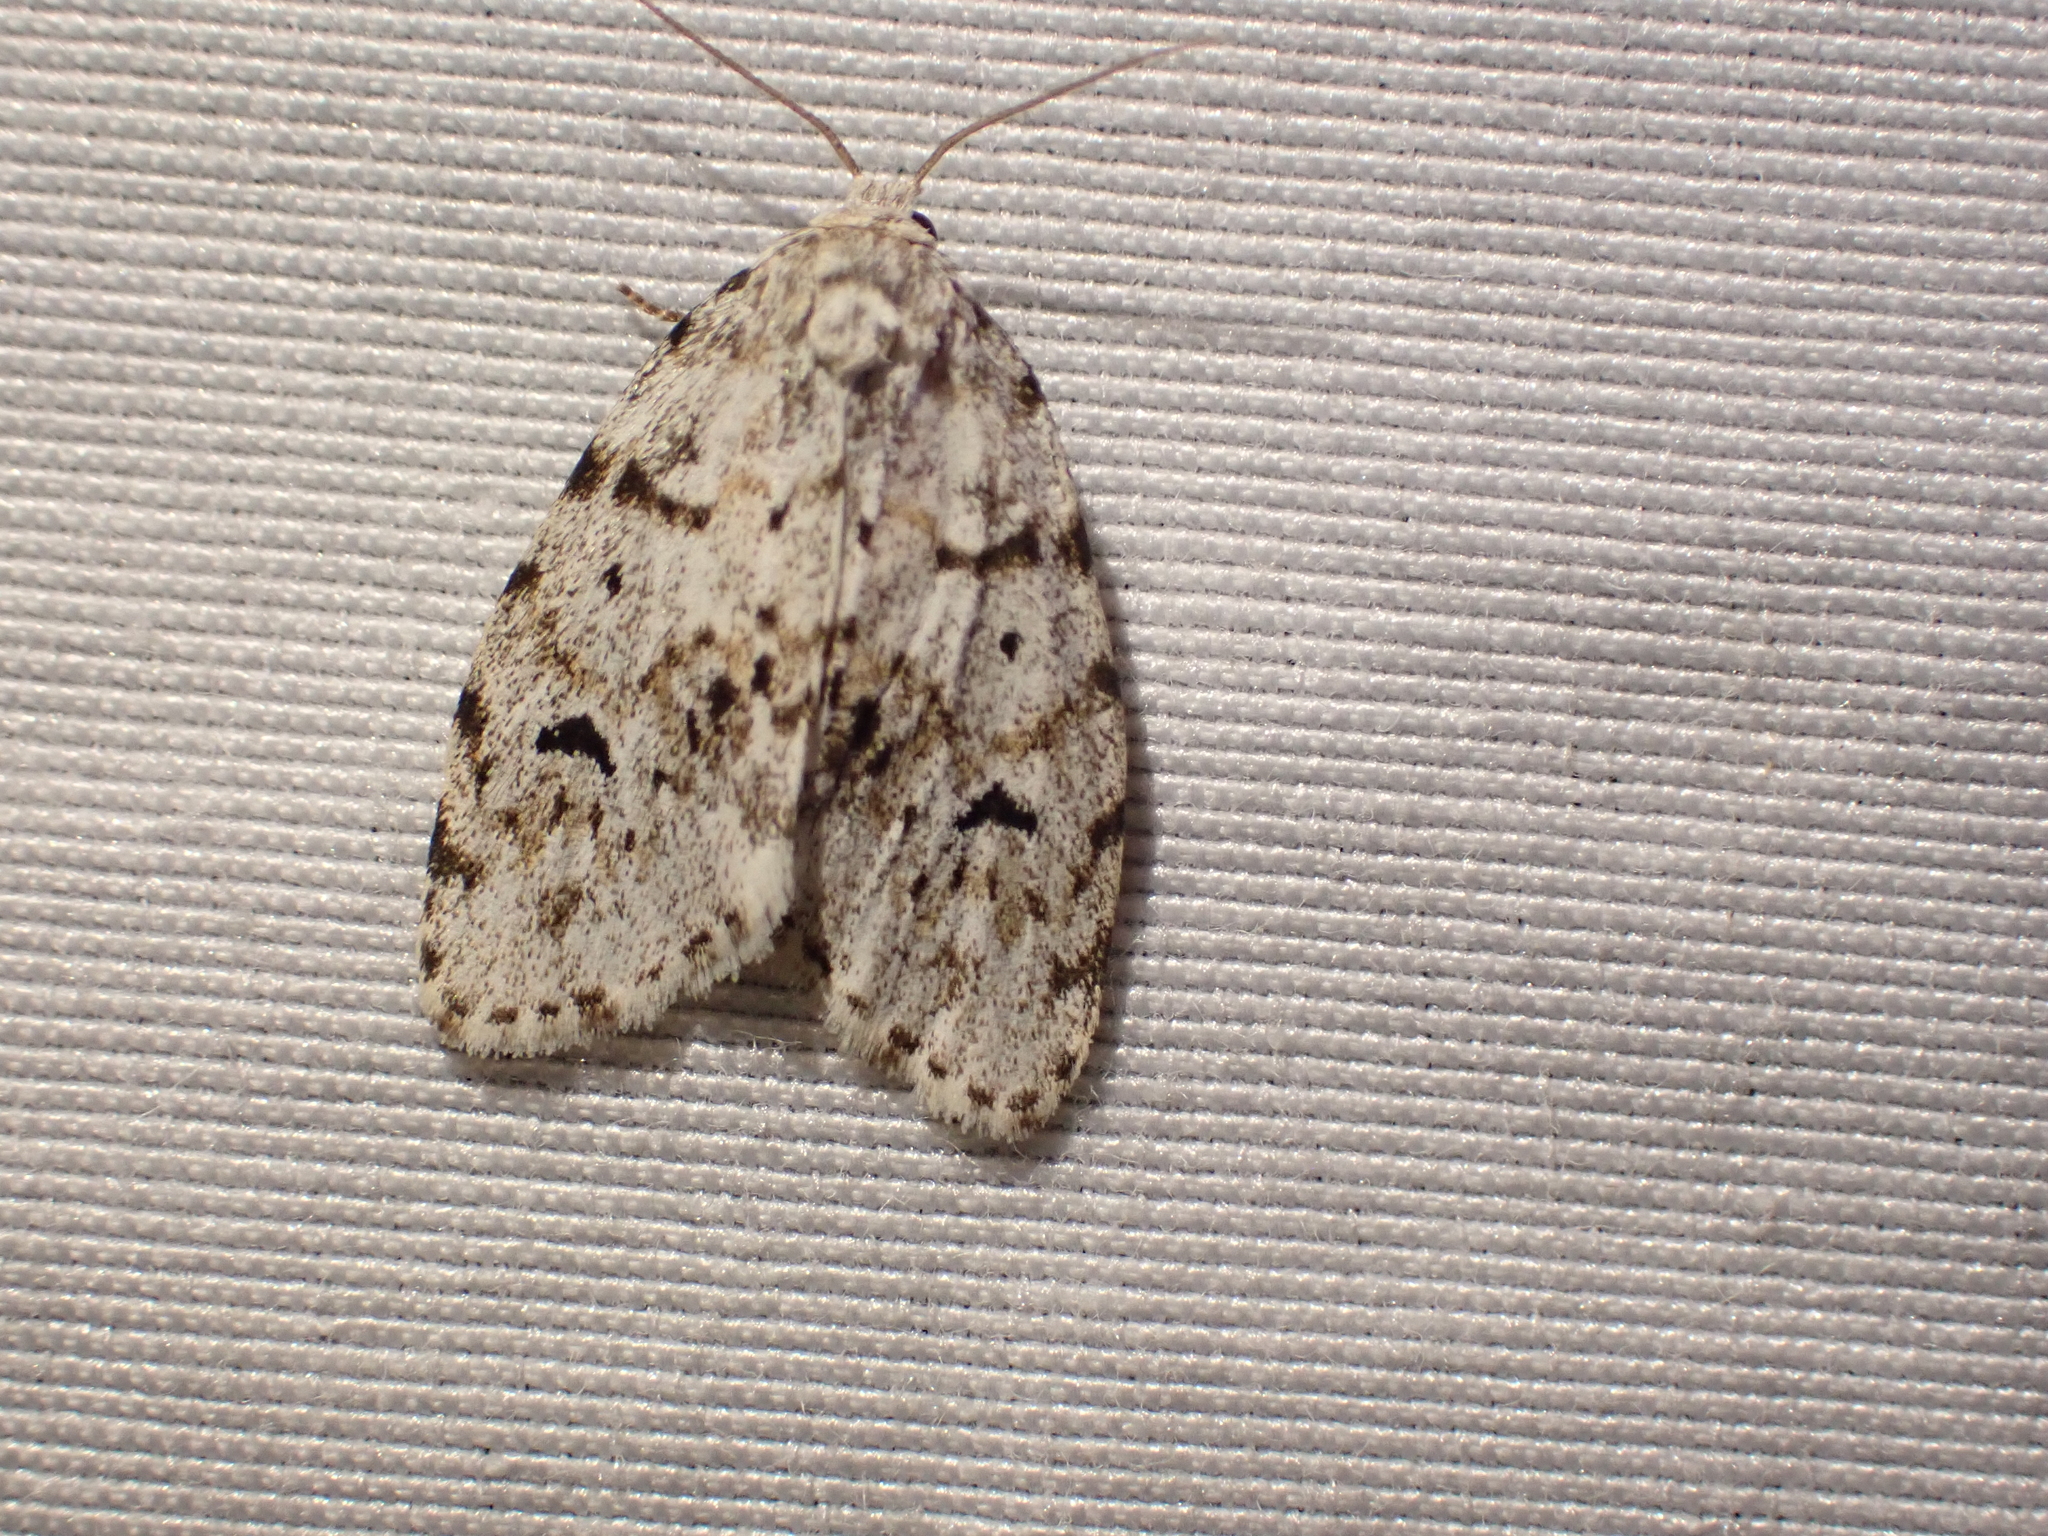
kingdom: Animalia
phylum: Arthropoda
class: Insecta
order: Lepidoptera
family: Erebidae
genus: Clemensia
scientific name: Clemensia umbrata
